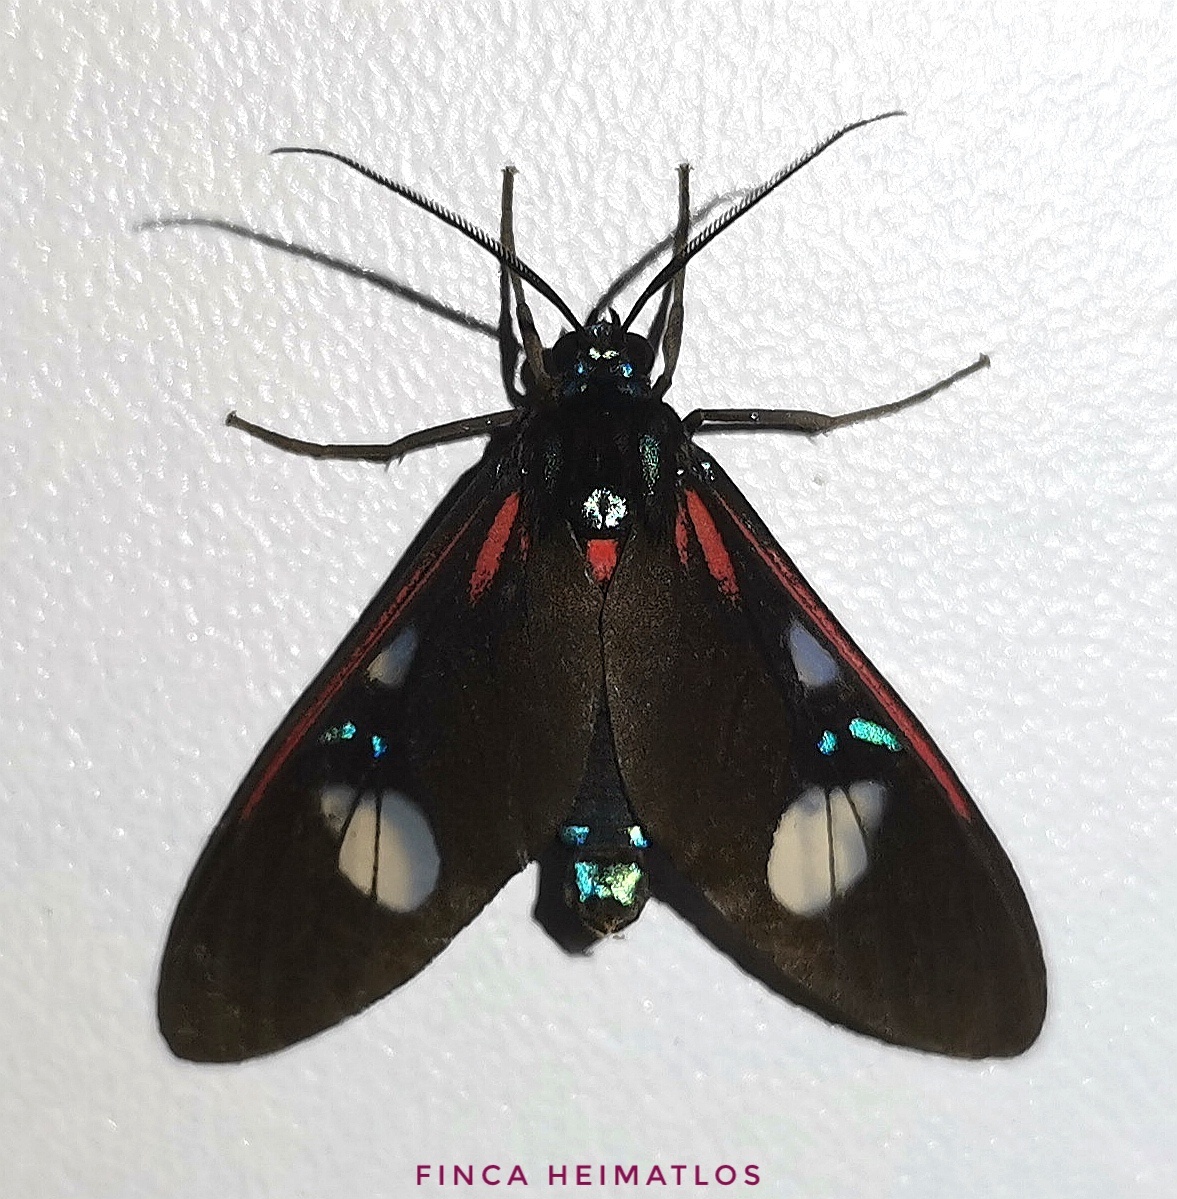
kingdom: Animalia
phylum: Arthropoda
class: Insecta
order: Lepidoptera
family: Erebidae
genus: Euclera
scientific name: Euclera meones
